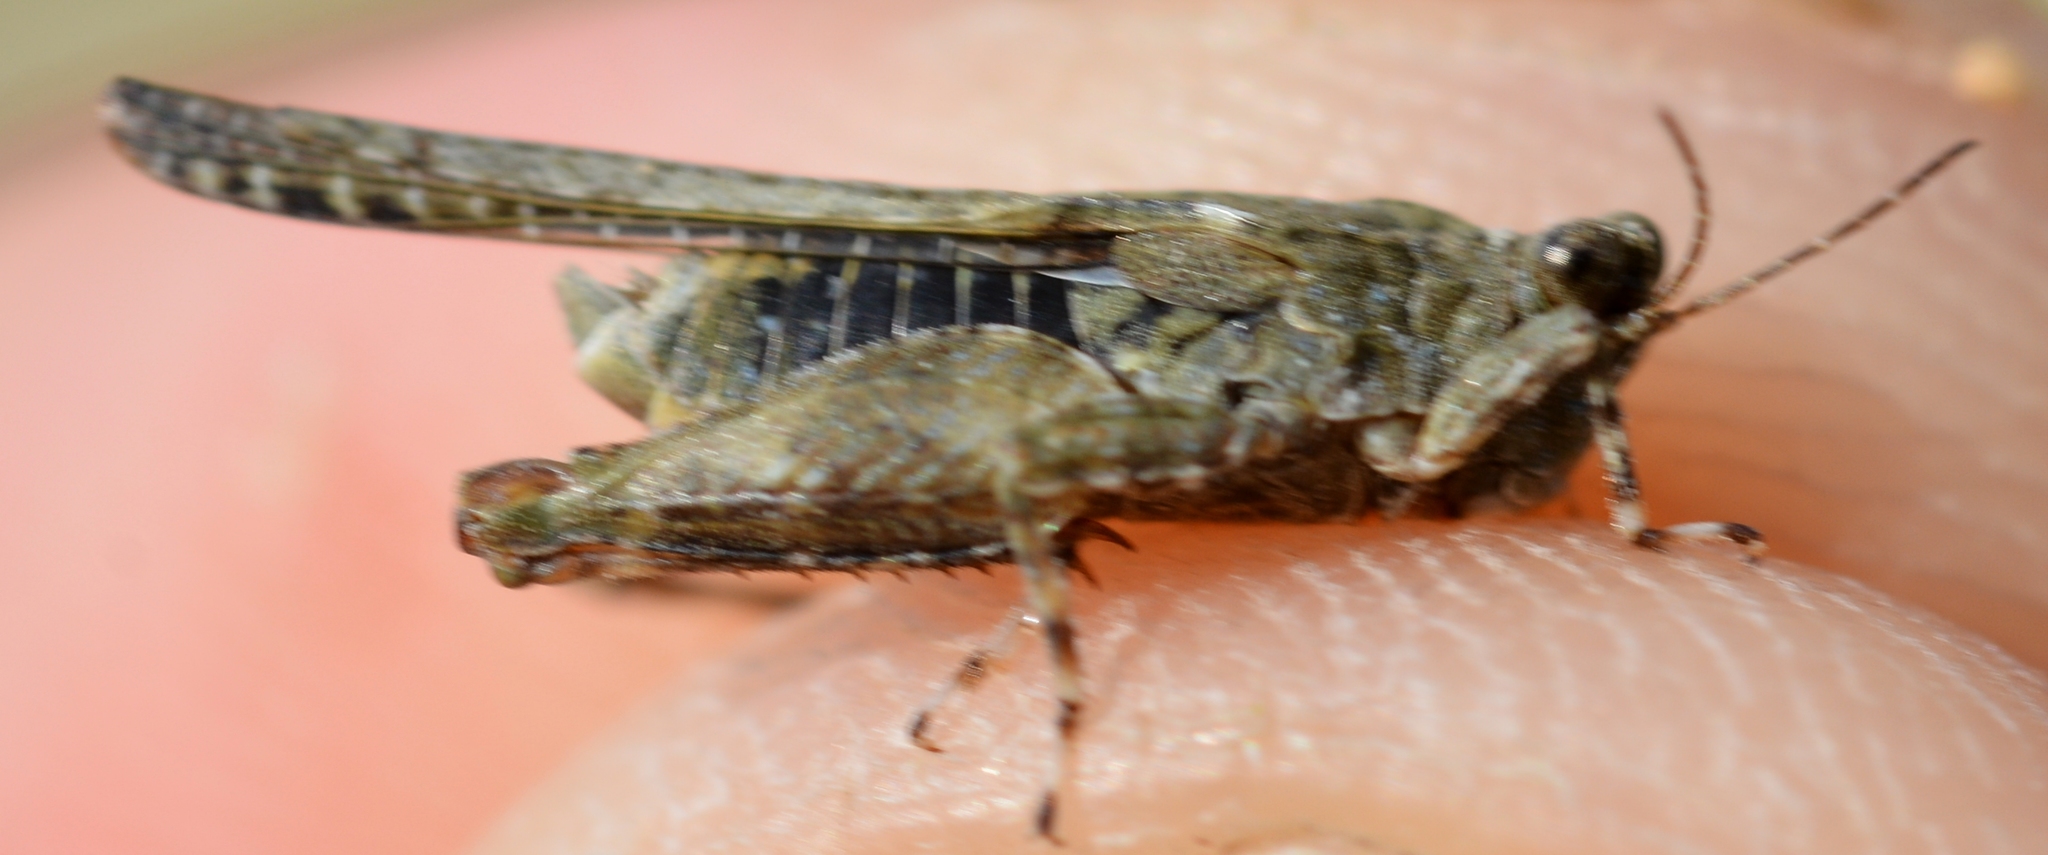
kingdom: Animalia
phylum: Arthropoda
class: Insecta
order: Orthoptera
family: Tetrigidae
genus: Paratettix
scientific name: Paratettix meridionalis
